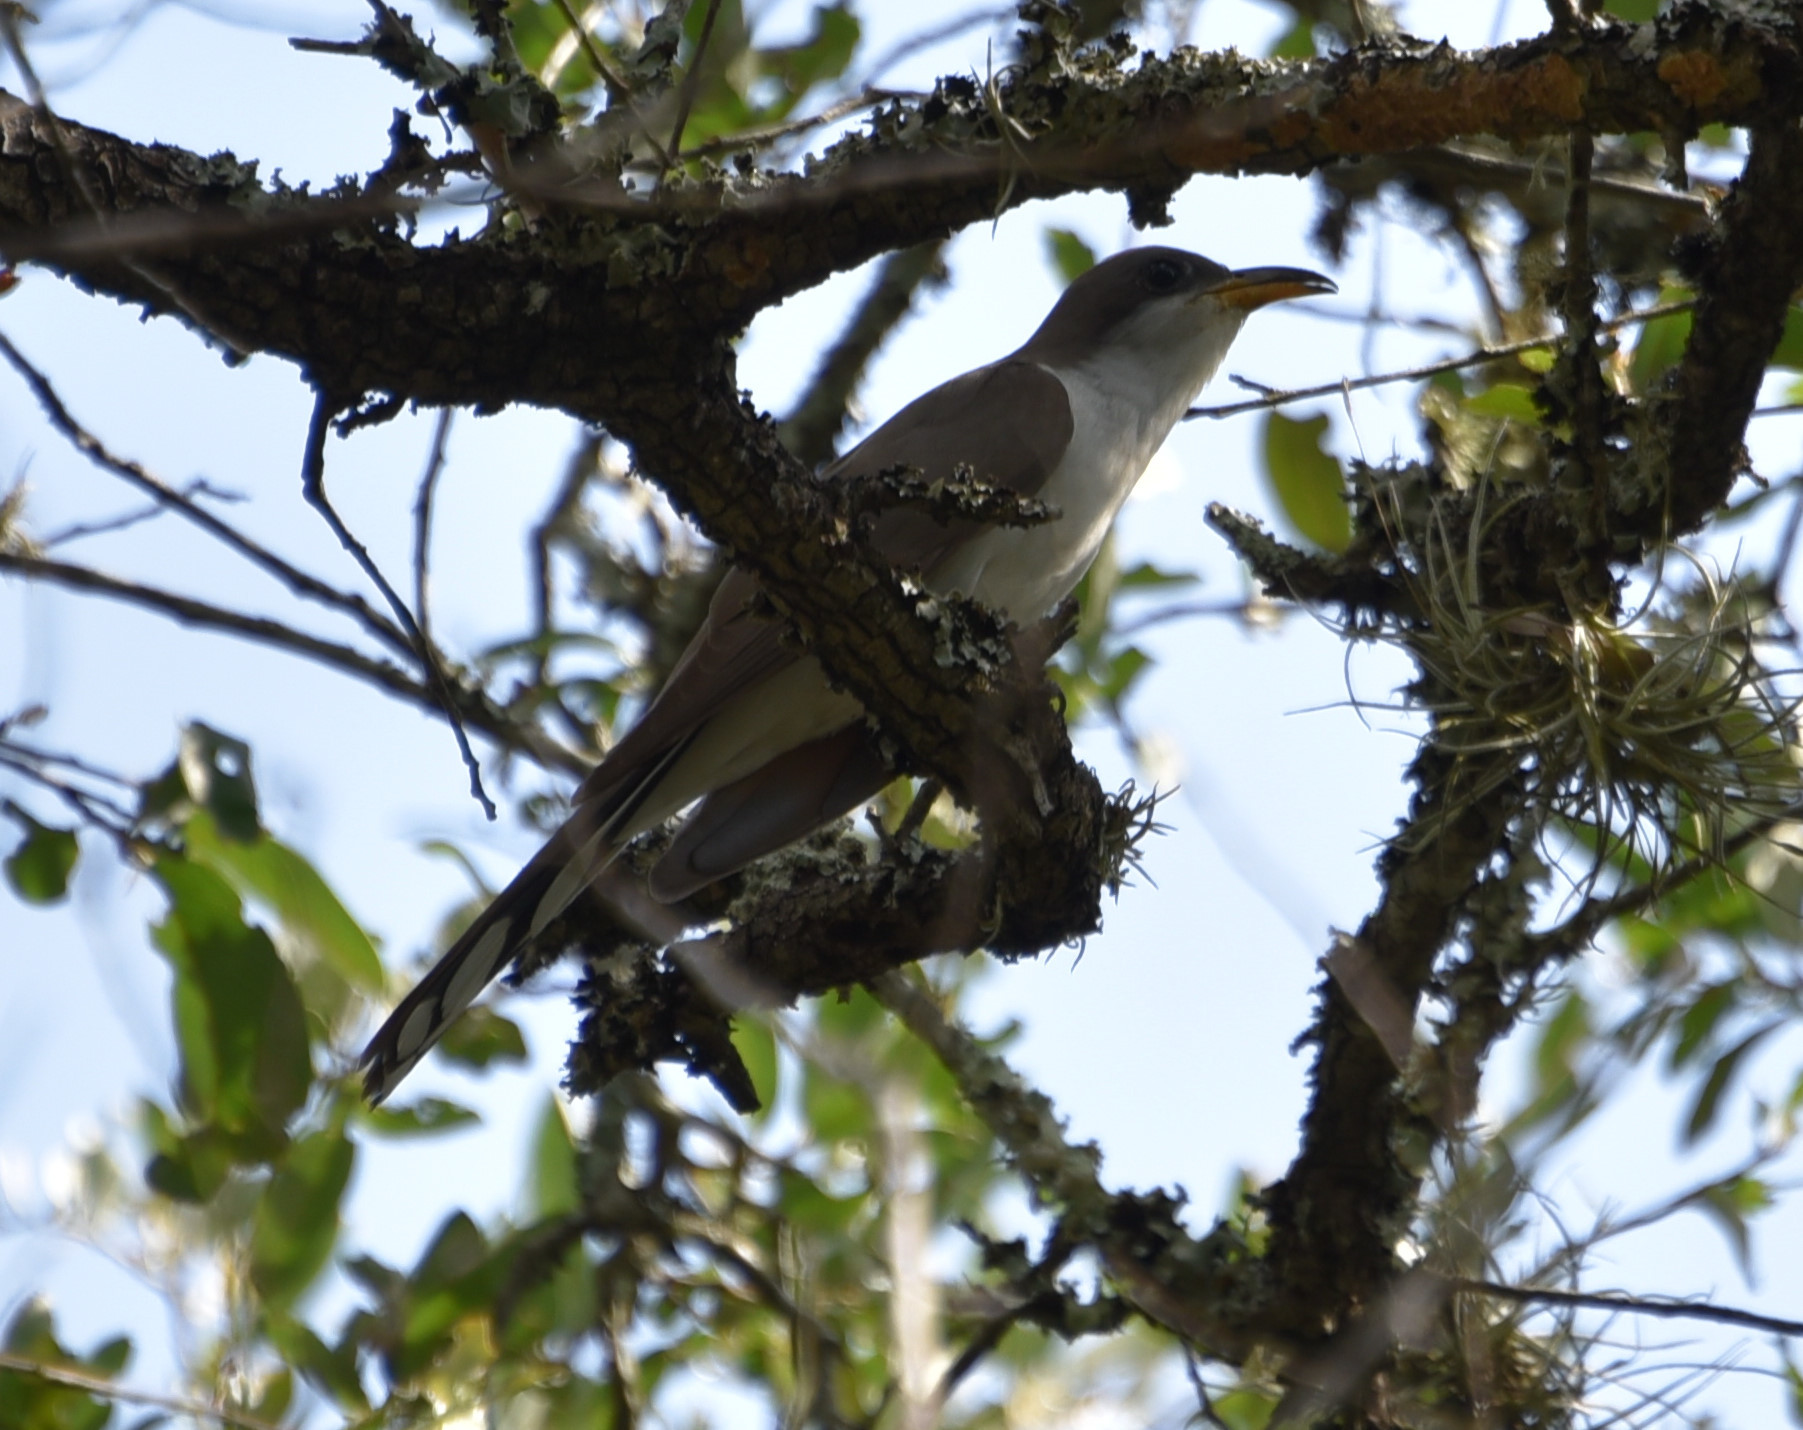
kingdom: Animalia
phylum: Chordata
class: Aves
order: Cuculiformes
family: Cuculidae
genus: Coccyzus
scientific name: Coccyzus americanus
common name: Yellow-billed cuckoo
